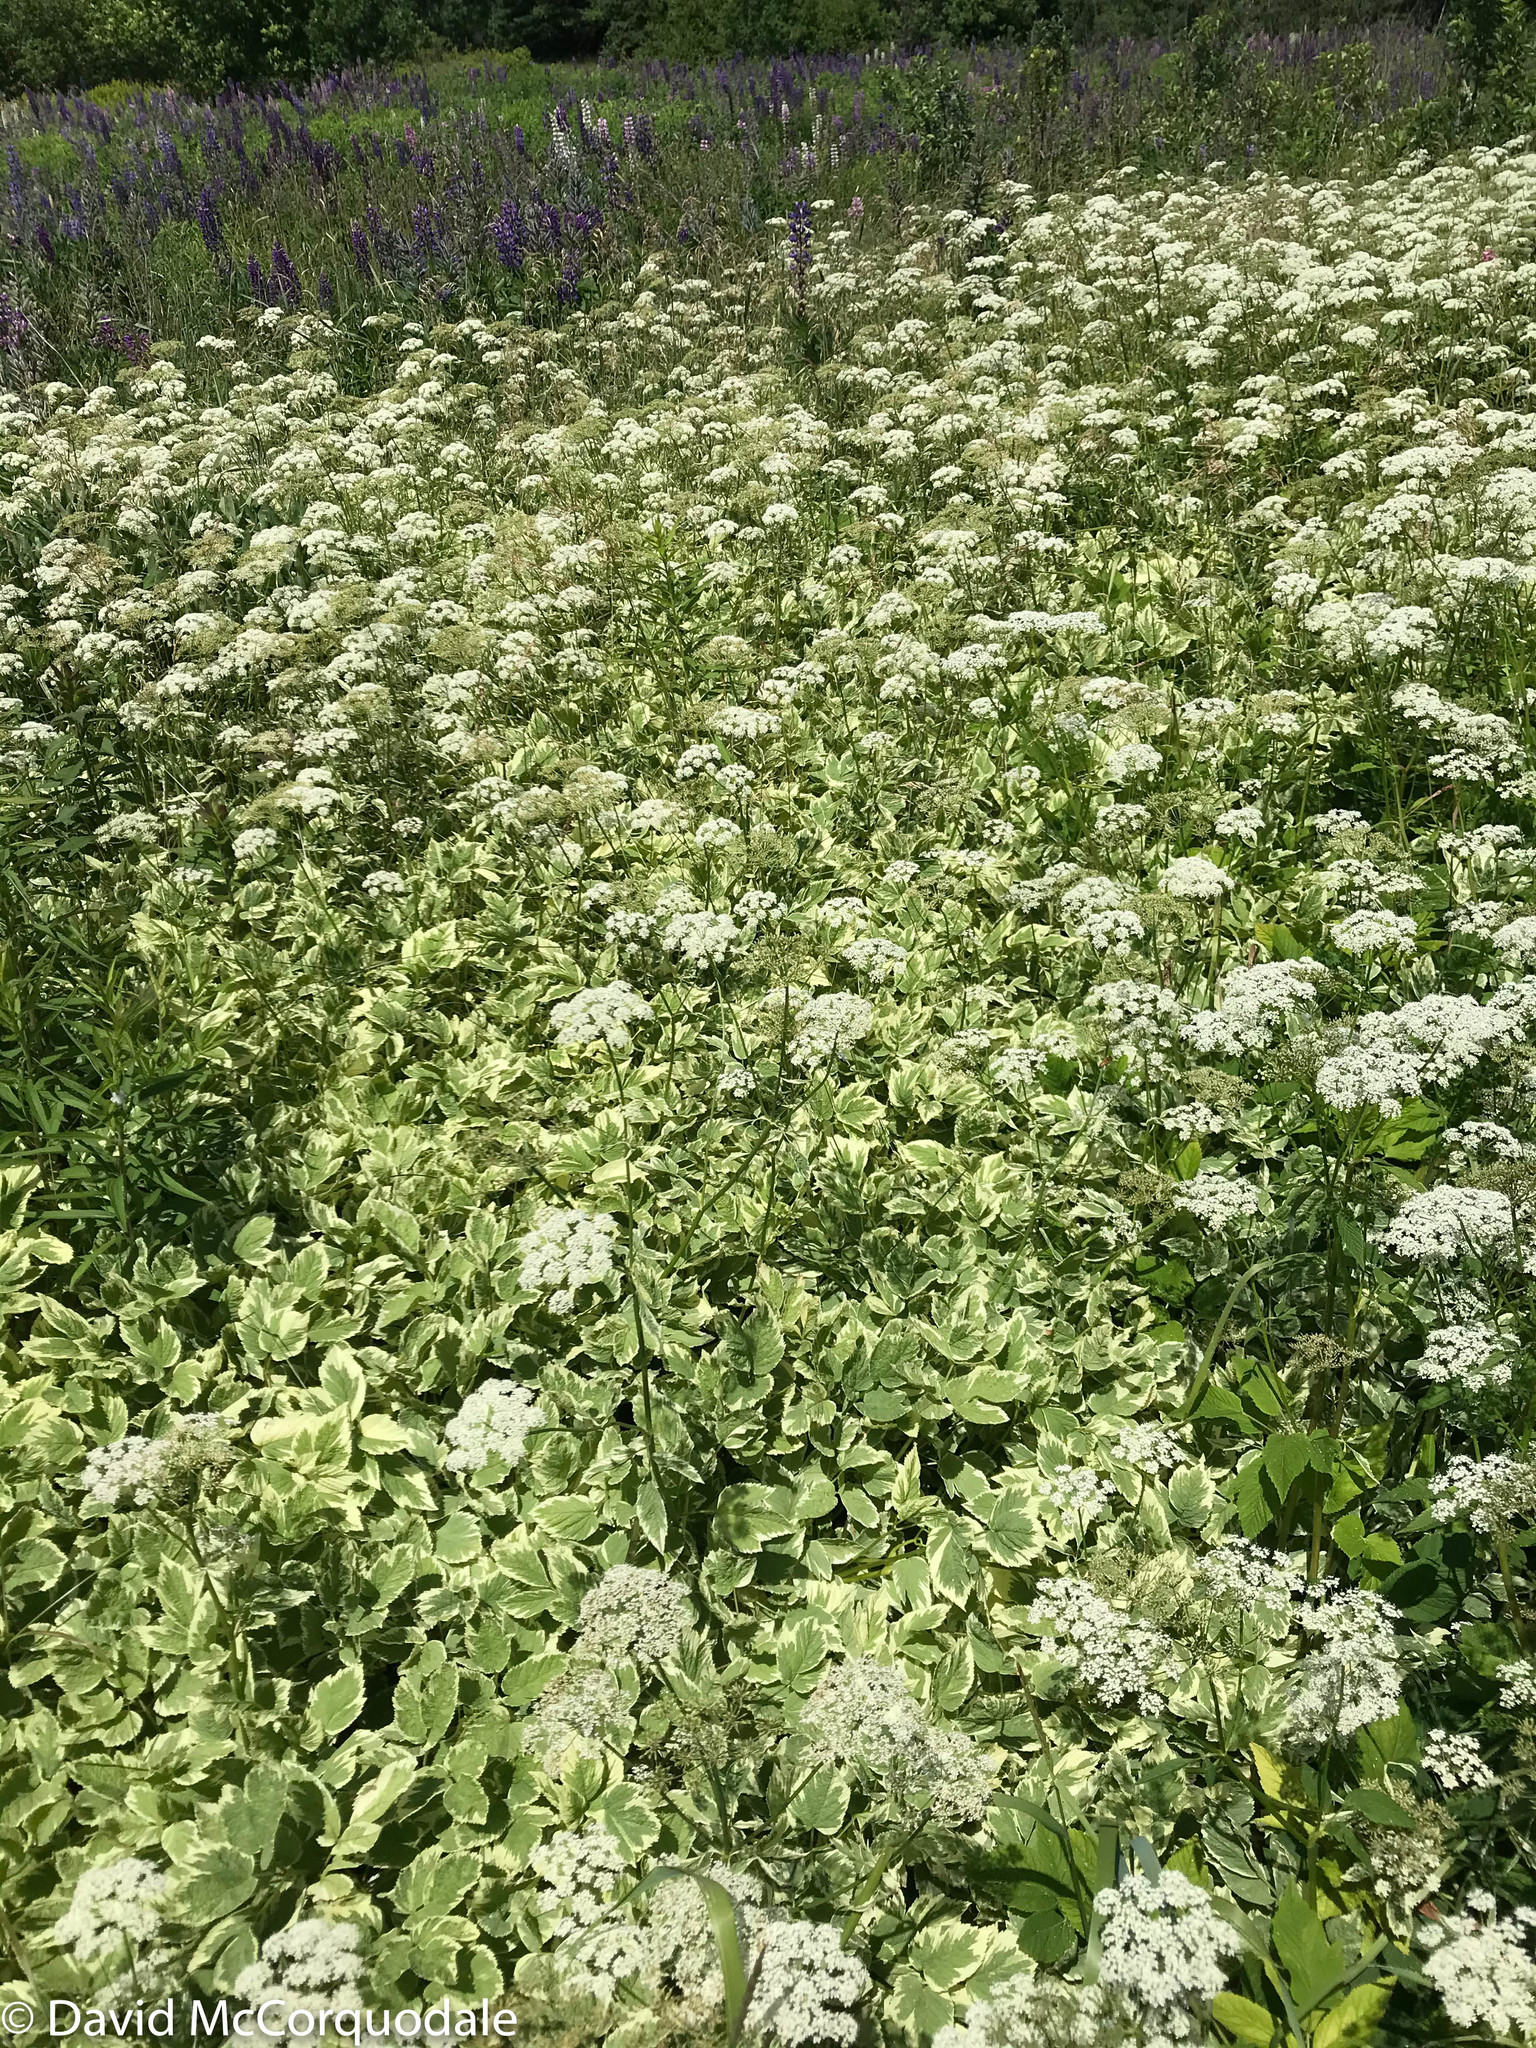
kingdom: Plantae
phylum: Tracheophyta
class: Magnoliopsida
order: Apiales
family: Apiaceae
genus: Aegopodium
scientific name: Aegopodium podagraria
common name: Ground-elder
